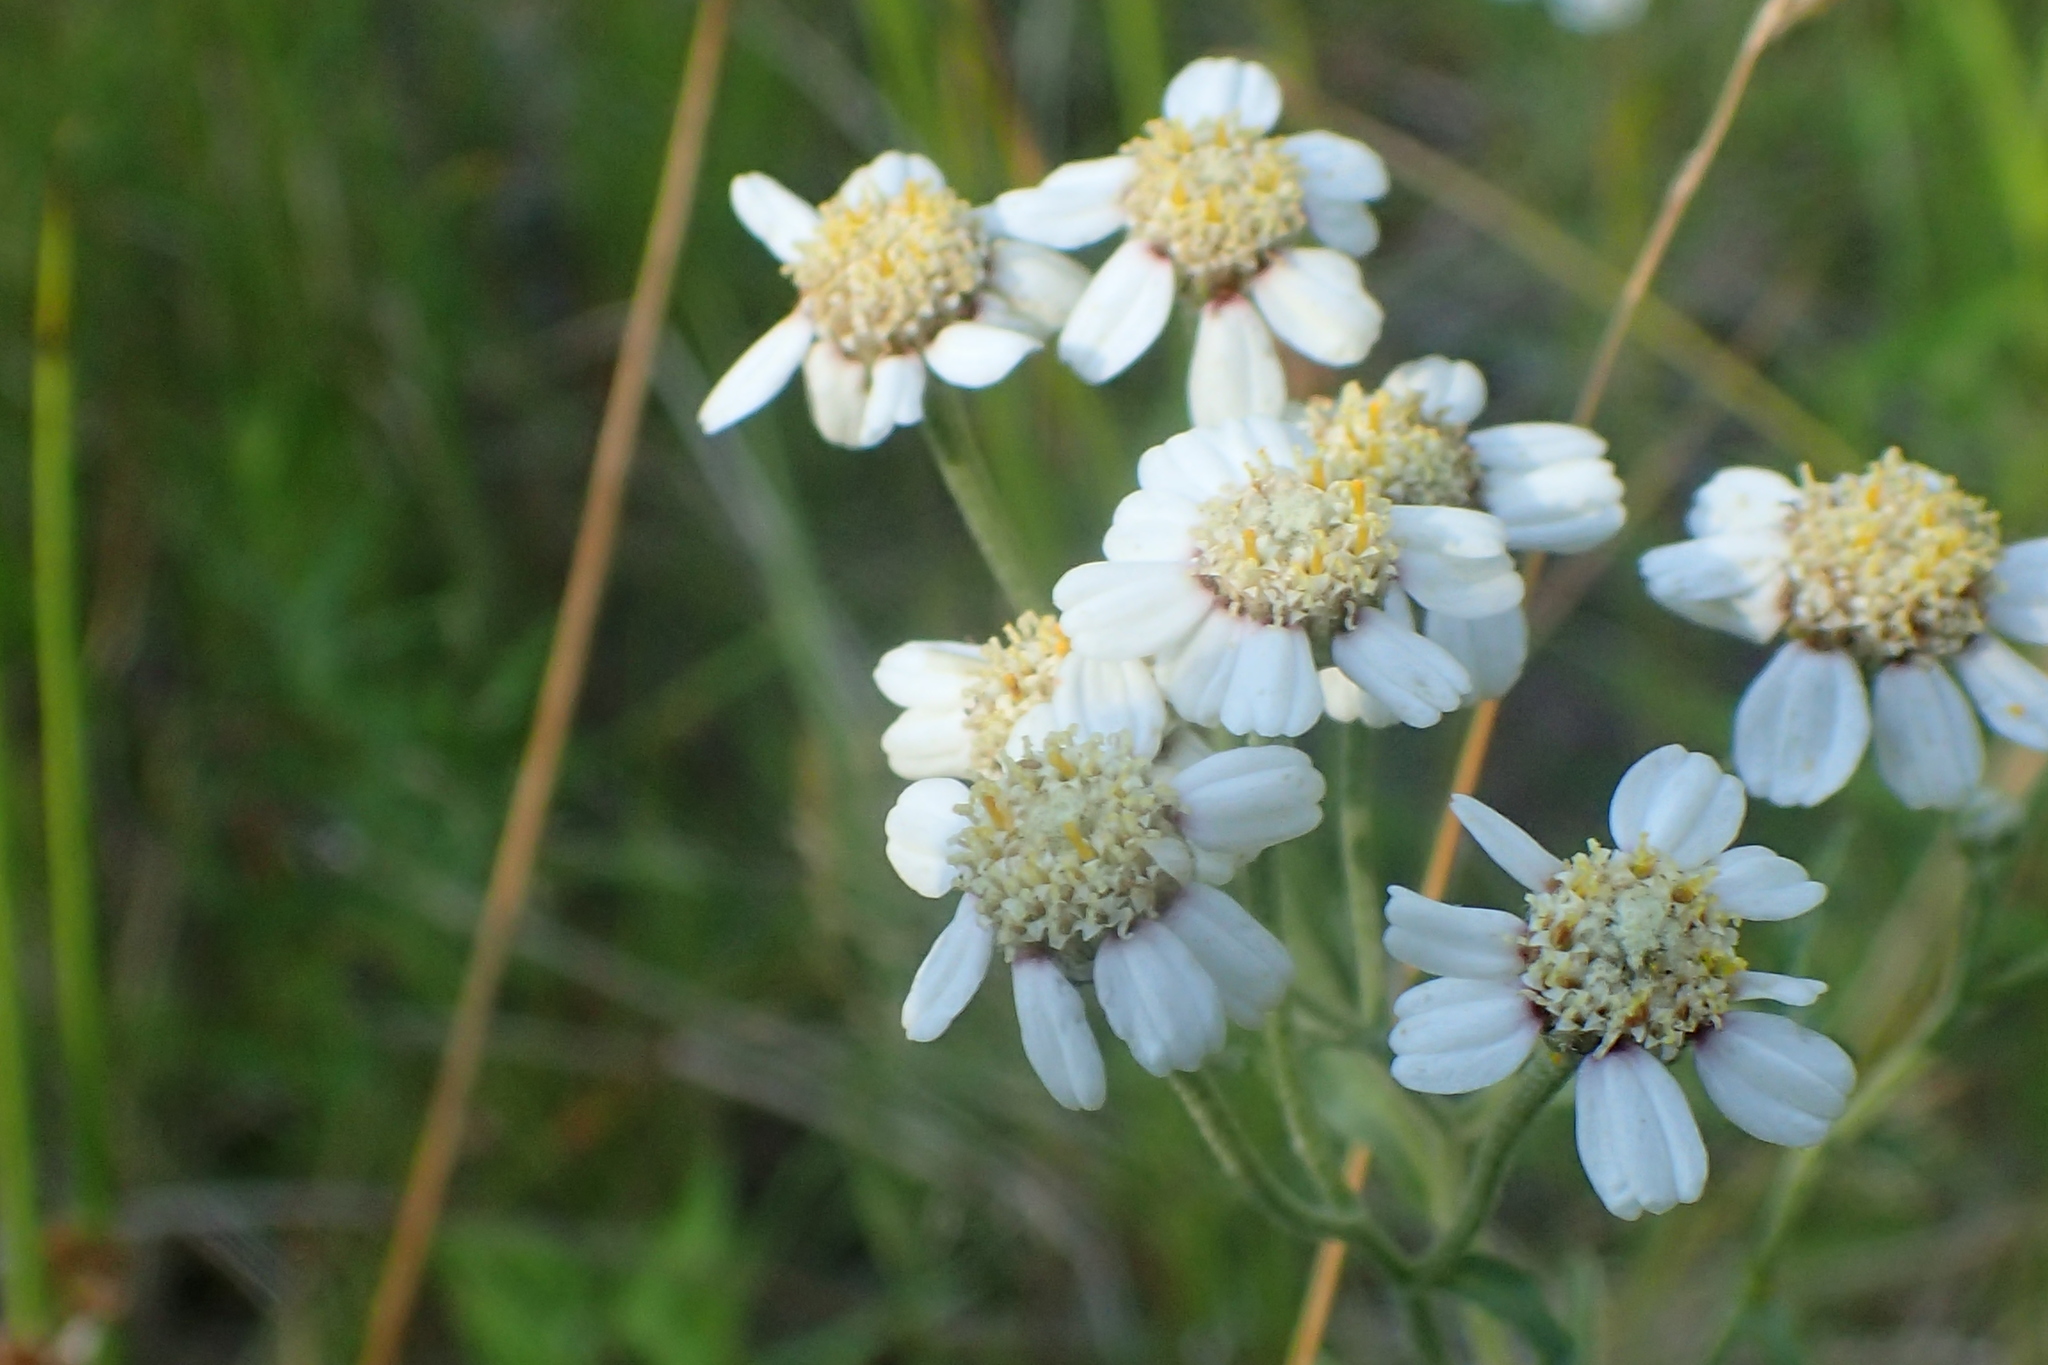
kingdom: Plantae
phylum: Tracheophyta
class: Magnoliopsida
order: Asterales
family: Asteraceae
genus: Achillea
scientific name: Achillea ptarmica
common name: Sneezeweed
